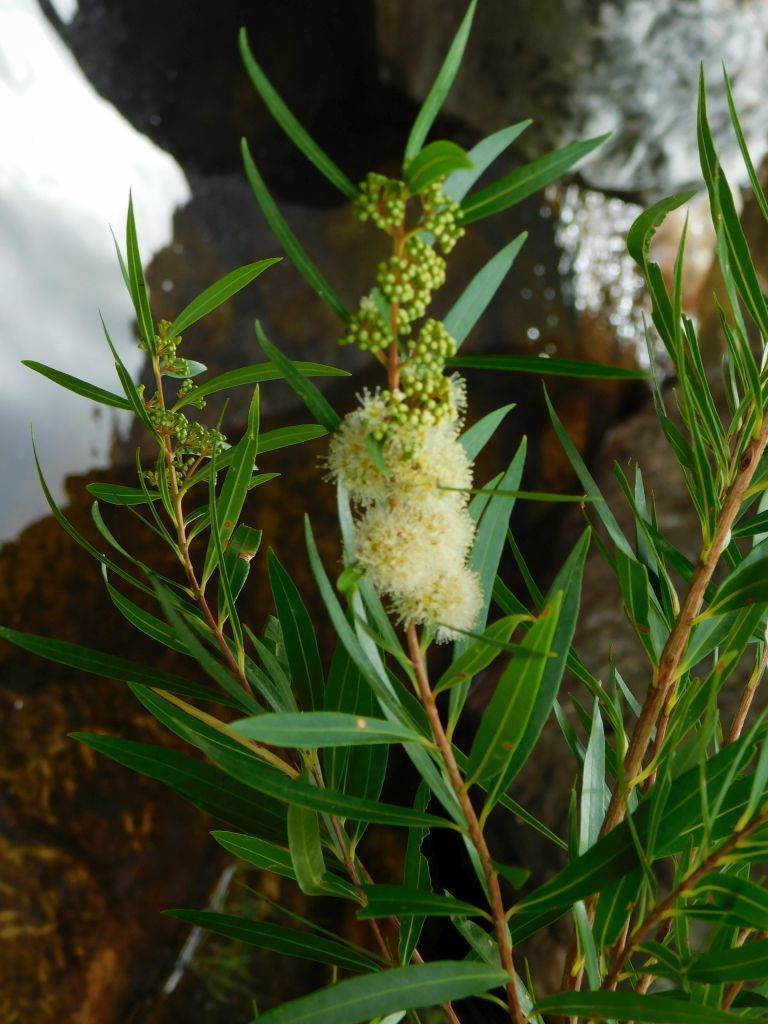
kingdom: Plantae
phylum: Tracheophyta
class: Magnoliopsida
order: Myrtales
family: Myrtaceae
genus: Callistemon
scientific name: Callistemon lanceolatus
